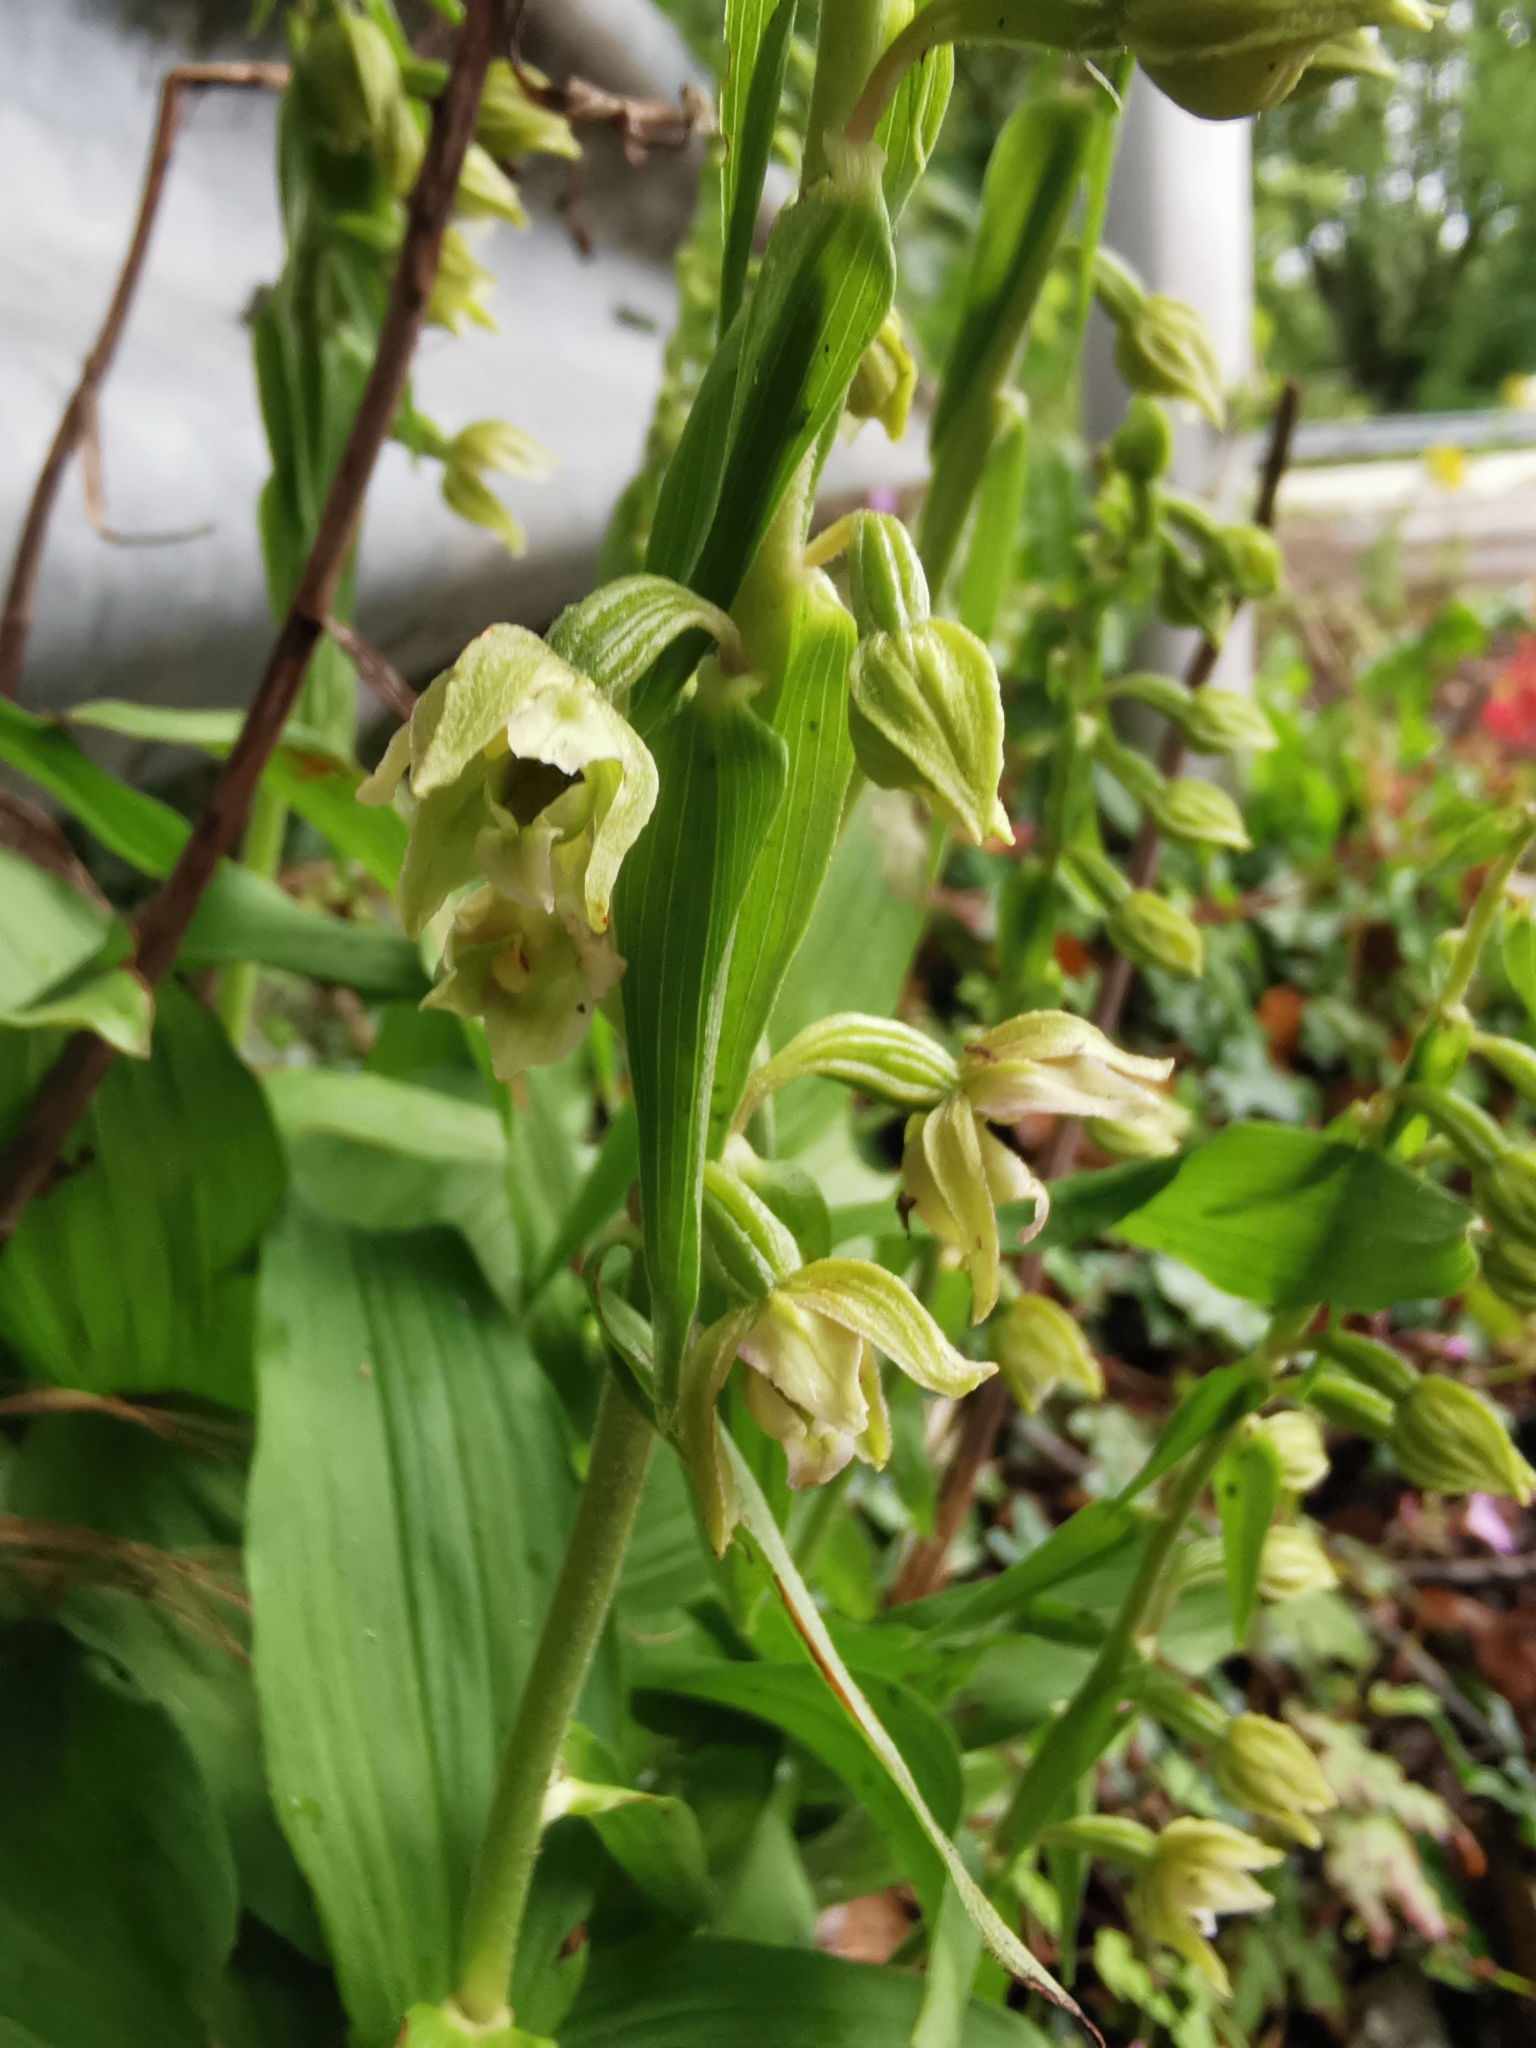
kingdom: Plantae
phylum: Tracheophyta
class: Liliopsida
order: Asparagales
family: Orchidaceae
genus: Epipactis
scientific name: Epipactis helleborine
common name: Broad-leaved helleborine
